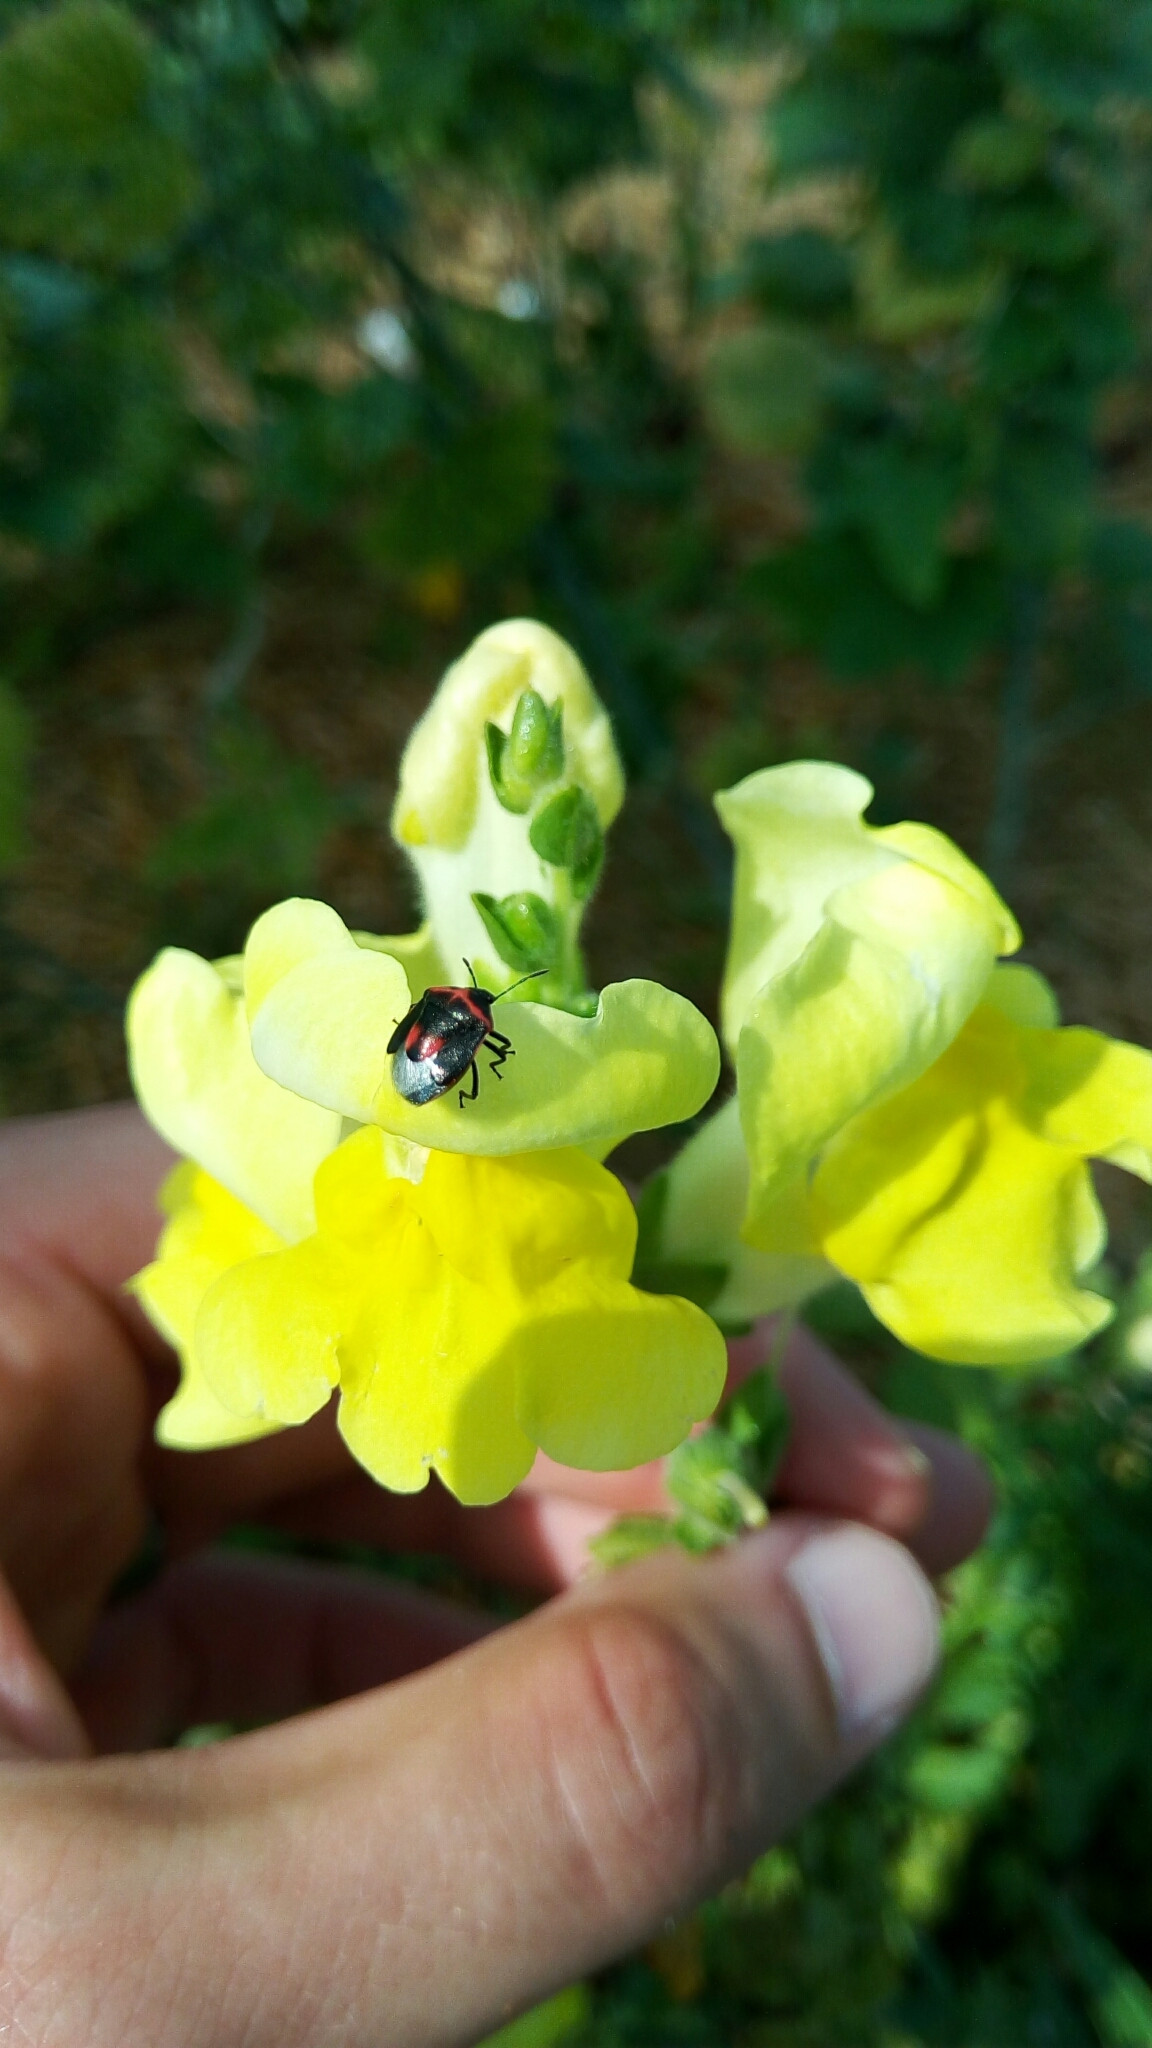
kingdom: Animalia
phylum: Arthropoda
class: Insecta
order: Hemiptera
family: Pentatomidae
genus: Cosmopepla
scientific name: Cosmopepla lintneriana
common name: Twice-stabbed stink bug
